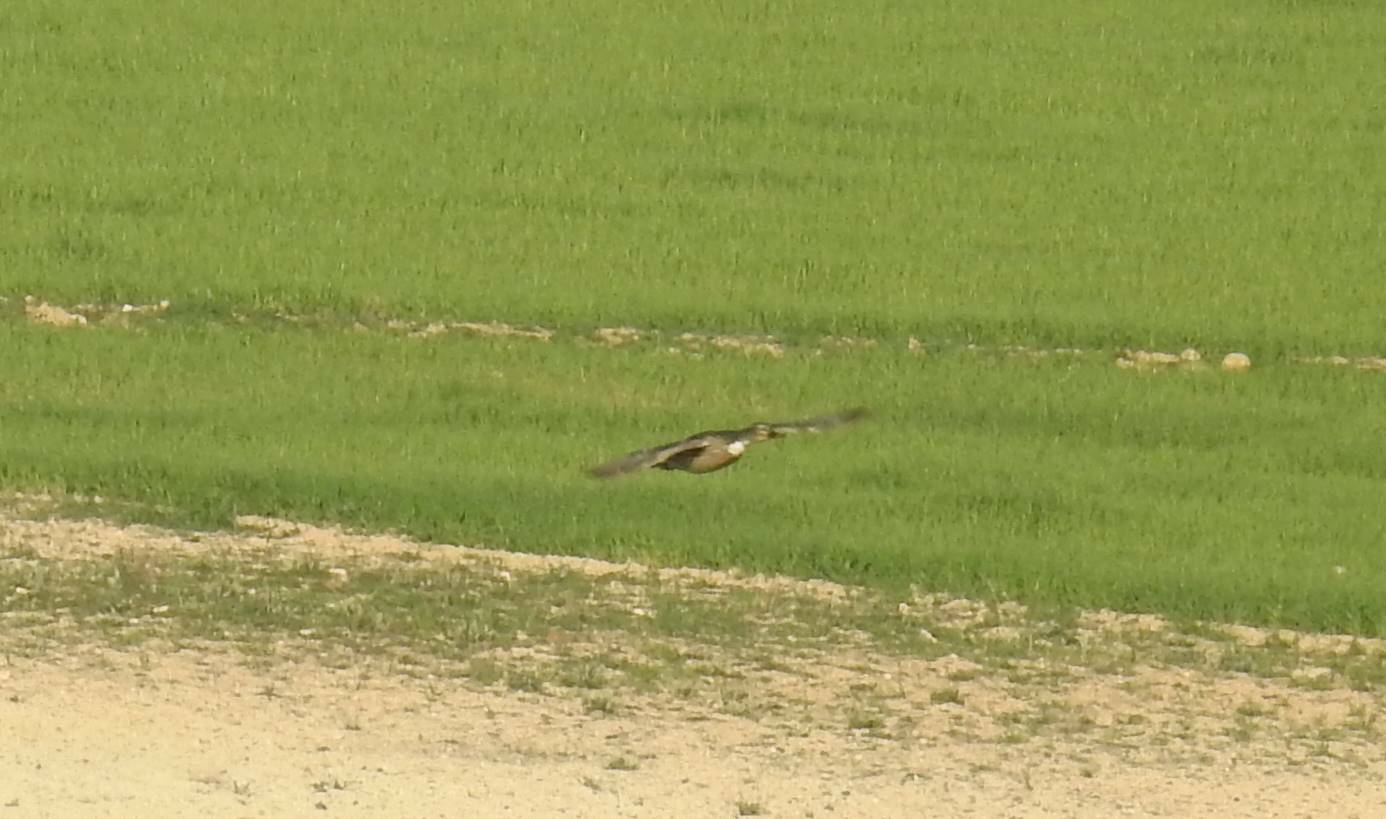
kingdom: Animalia
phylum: Chordata
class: Aves
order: Anseriformes
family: Anatidae
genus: Anas
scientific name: Anas platyrhynchos
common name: Mallard
